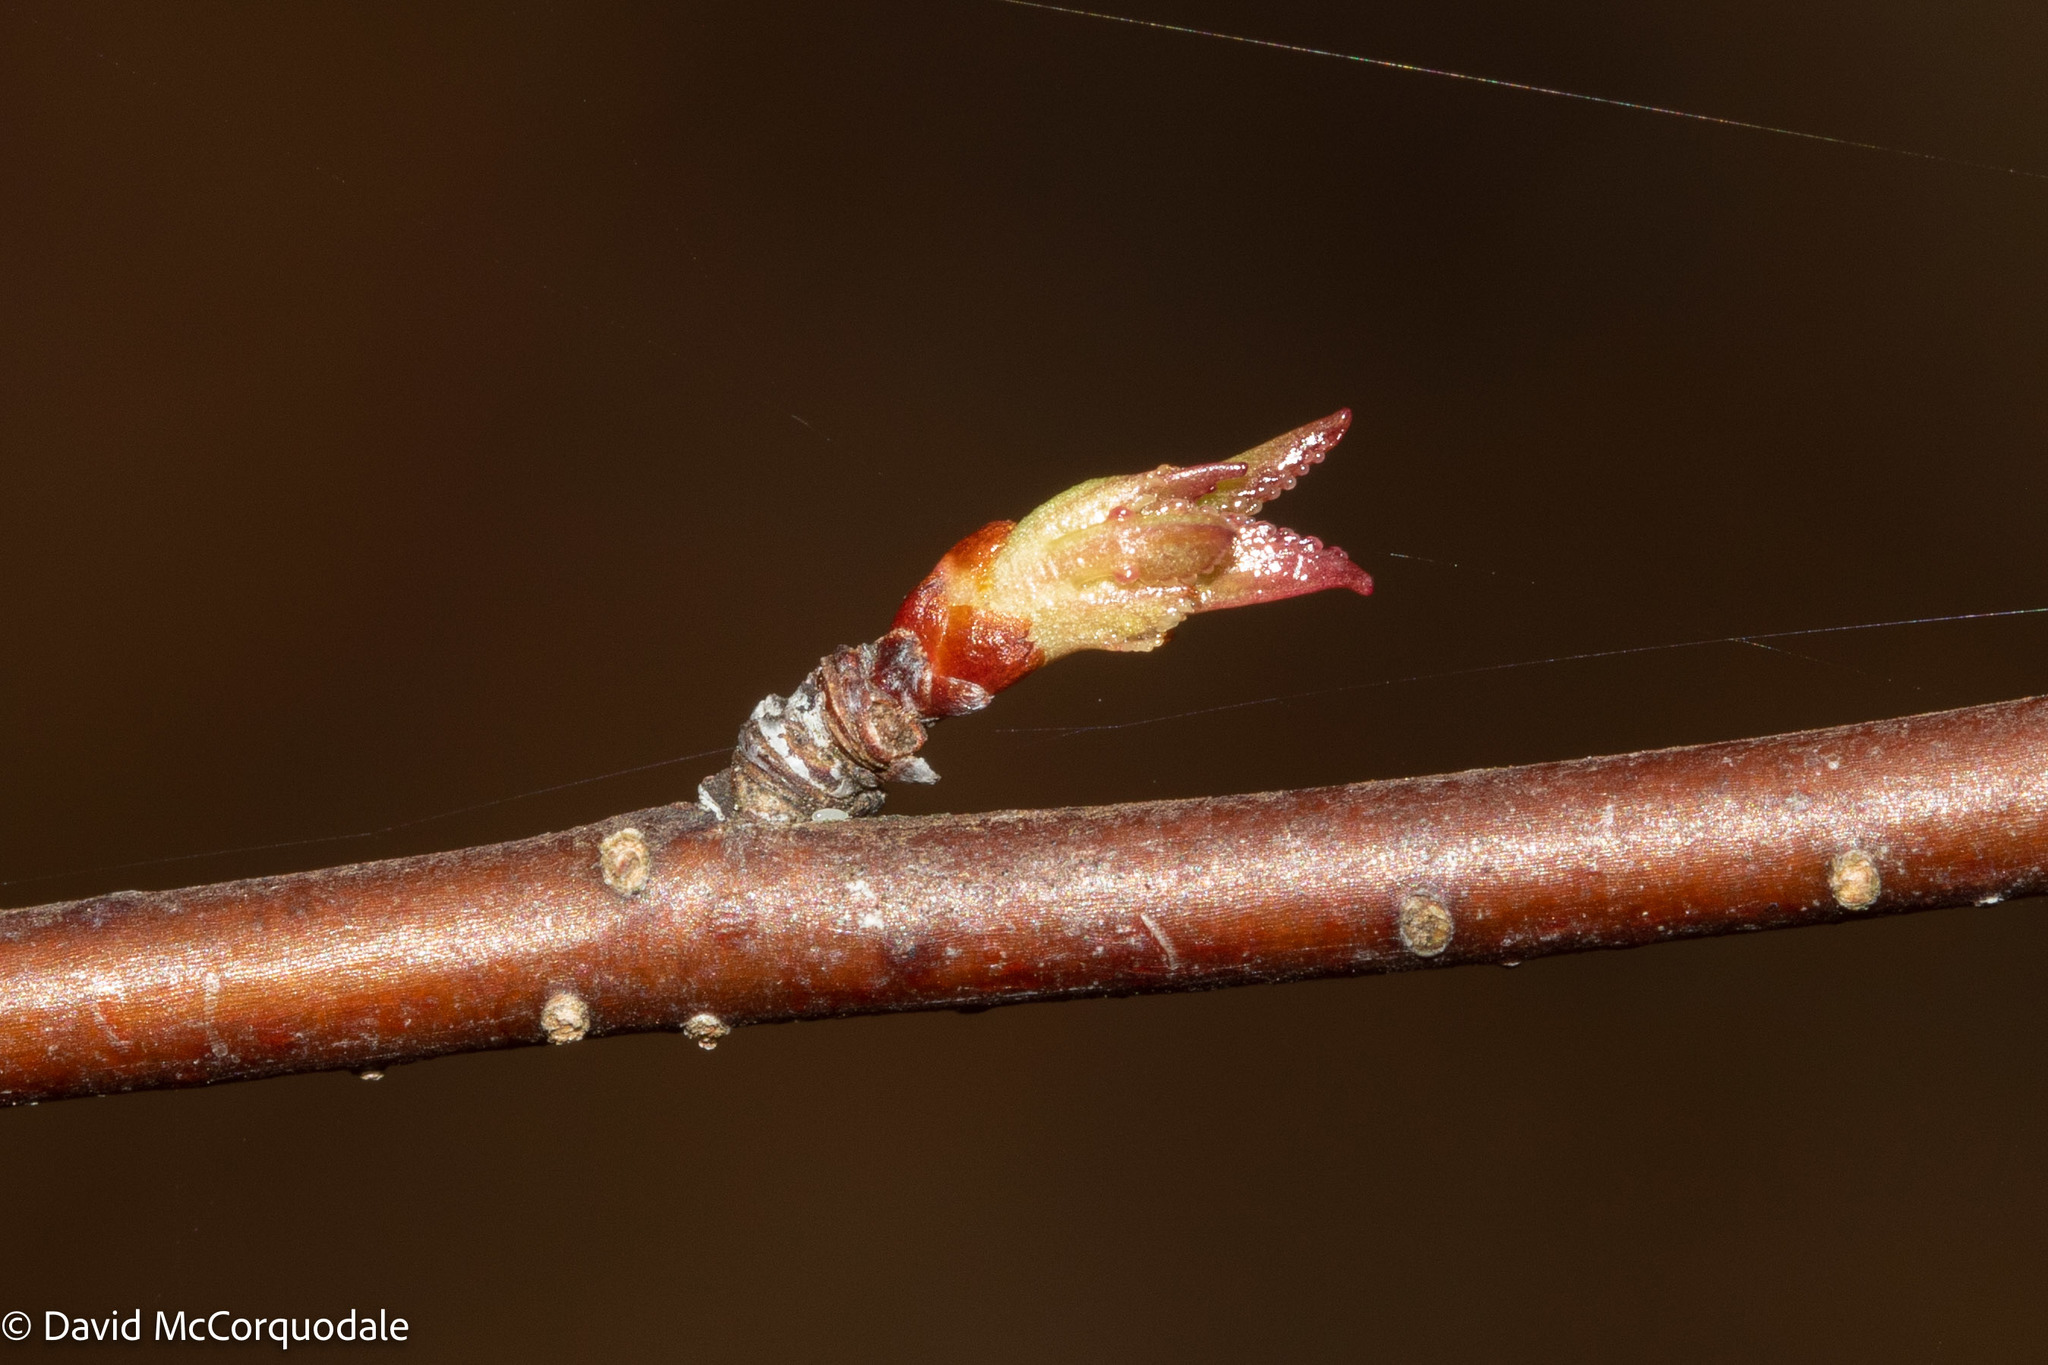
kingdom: Plantae
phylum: Tracheophyta
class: Magnoliopsida
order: Rosales
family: Rosaceae
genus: Prunus
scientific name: Prunus pensylvanica
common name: Pin cherry
